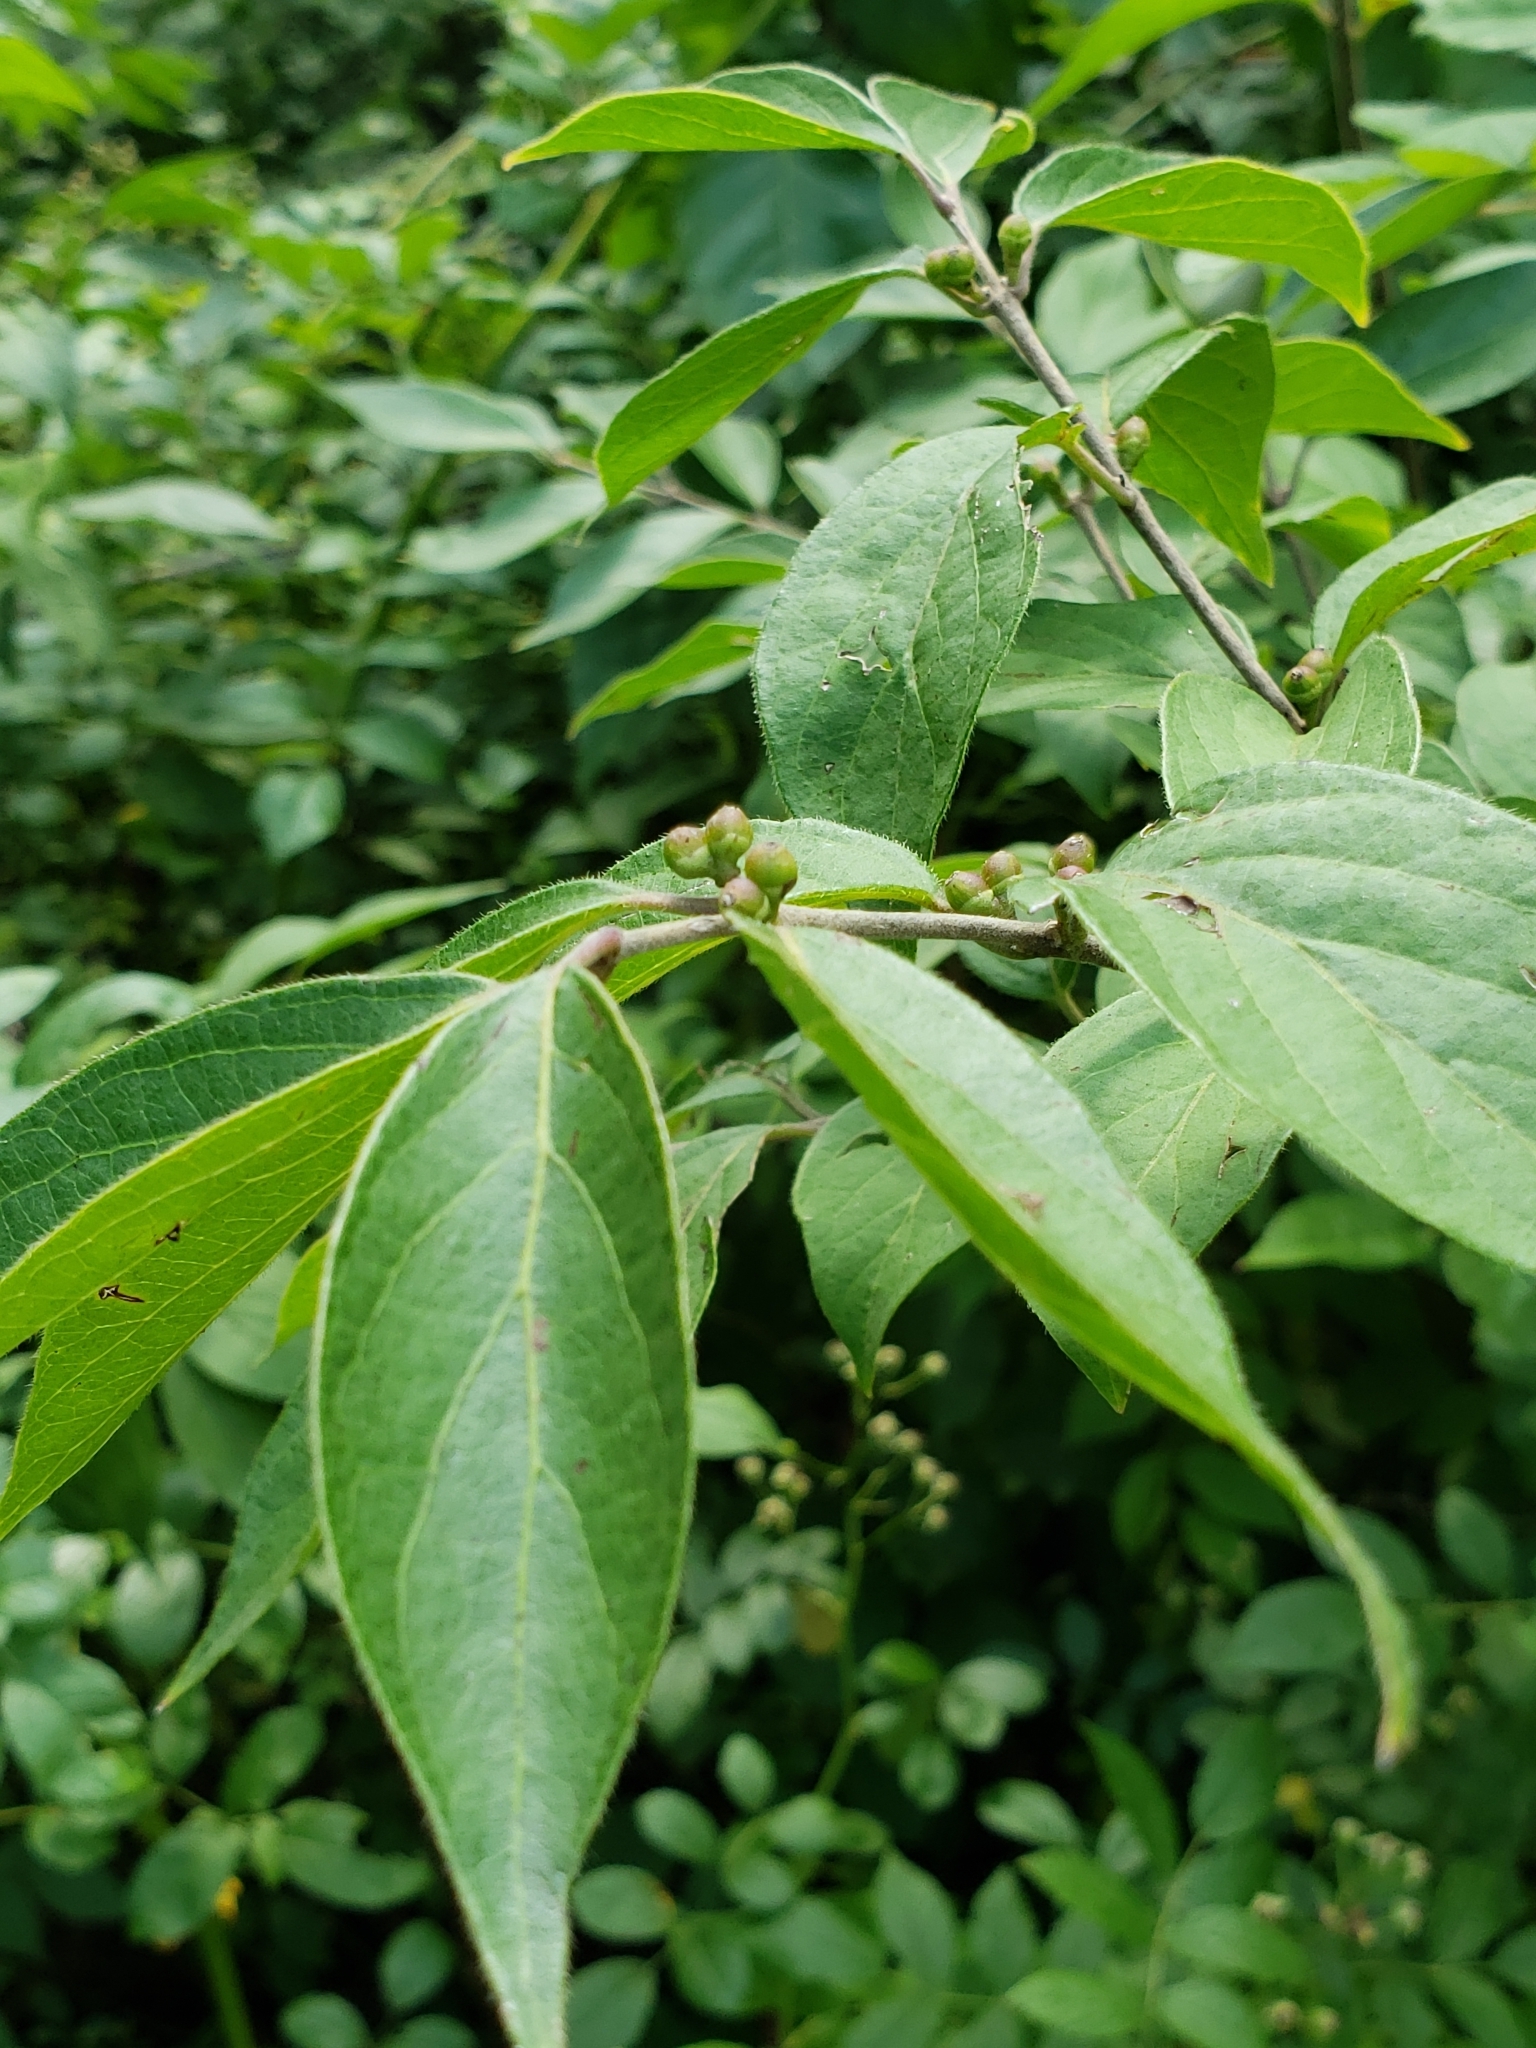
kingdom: Plantae
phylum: Tracheophyta
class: Magnoliopsida
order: Dipsacales
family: Caprifoliaceae
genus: Lonicera
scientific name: Lonicera maackii
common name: Amur honeysuckle
